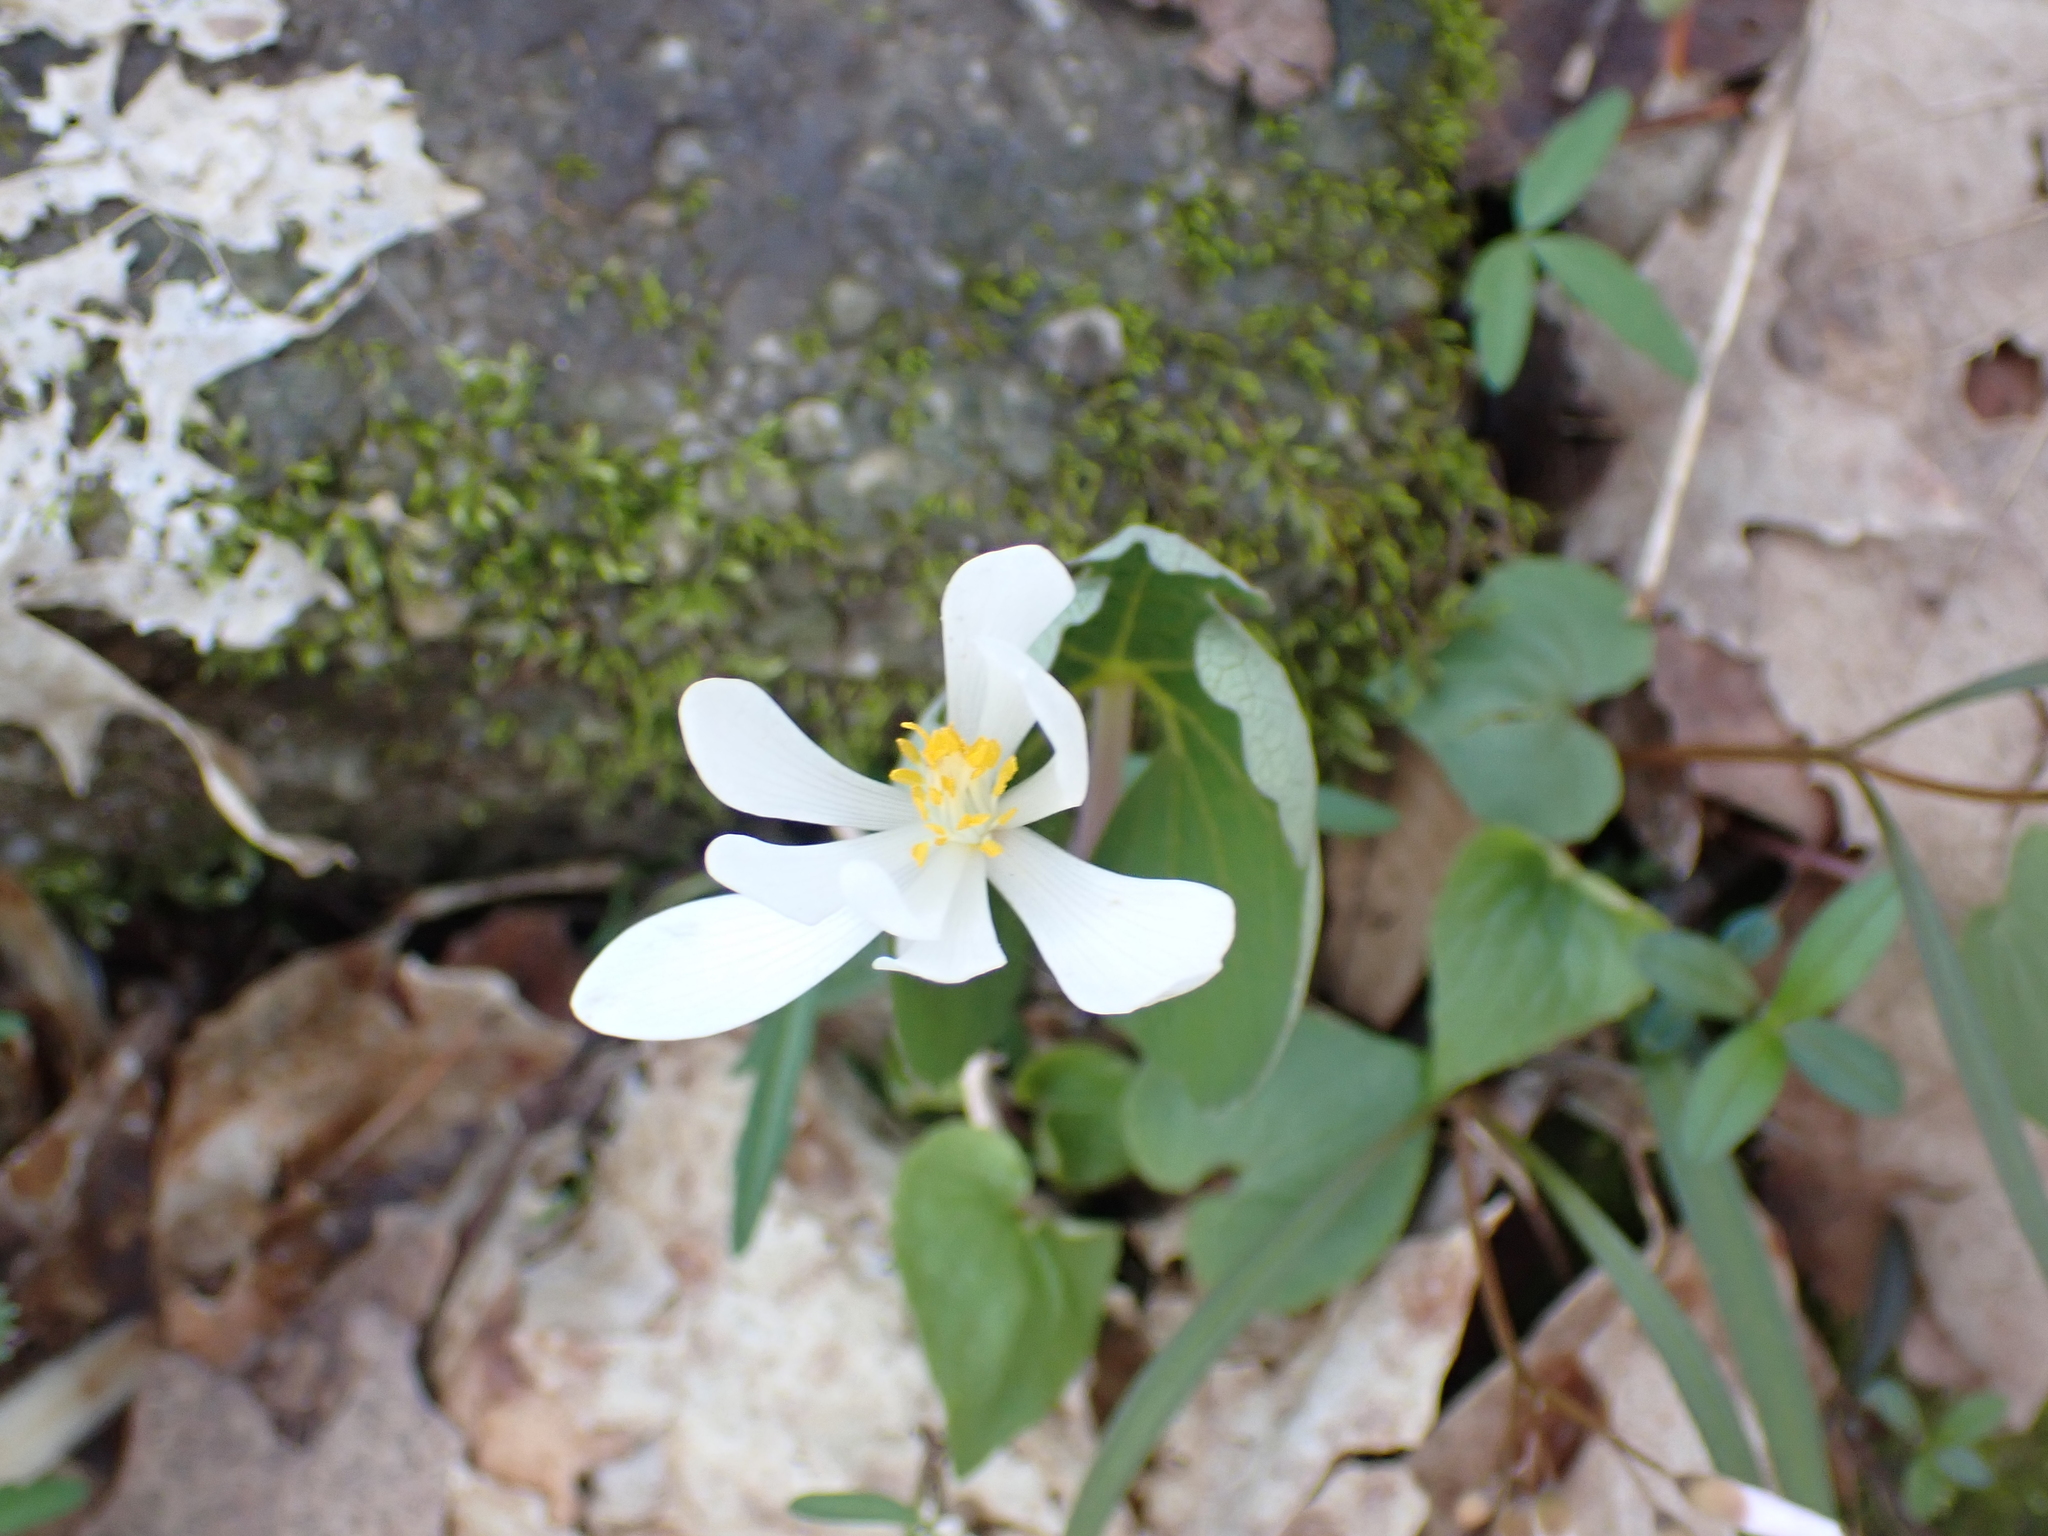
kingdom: Plantae
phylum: Tracheophyta
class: Magnoliopsida
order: Ranunculales
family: Papaveraceae
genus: Sanguinaria
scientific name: Sanguinaria canadensis
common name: Bloodroot
